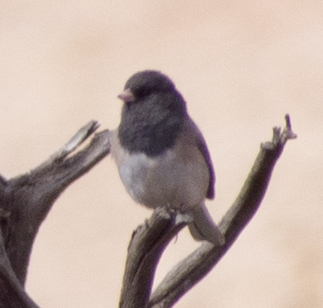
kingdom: Animalia
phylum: Chordata
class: Aves
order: Passeriformes
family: Passerellidae
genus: Junco
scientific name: Junco hyemalis
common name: Dark-eyed junco
